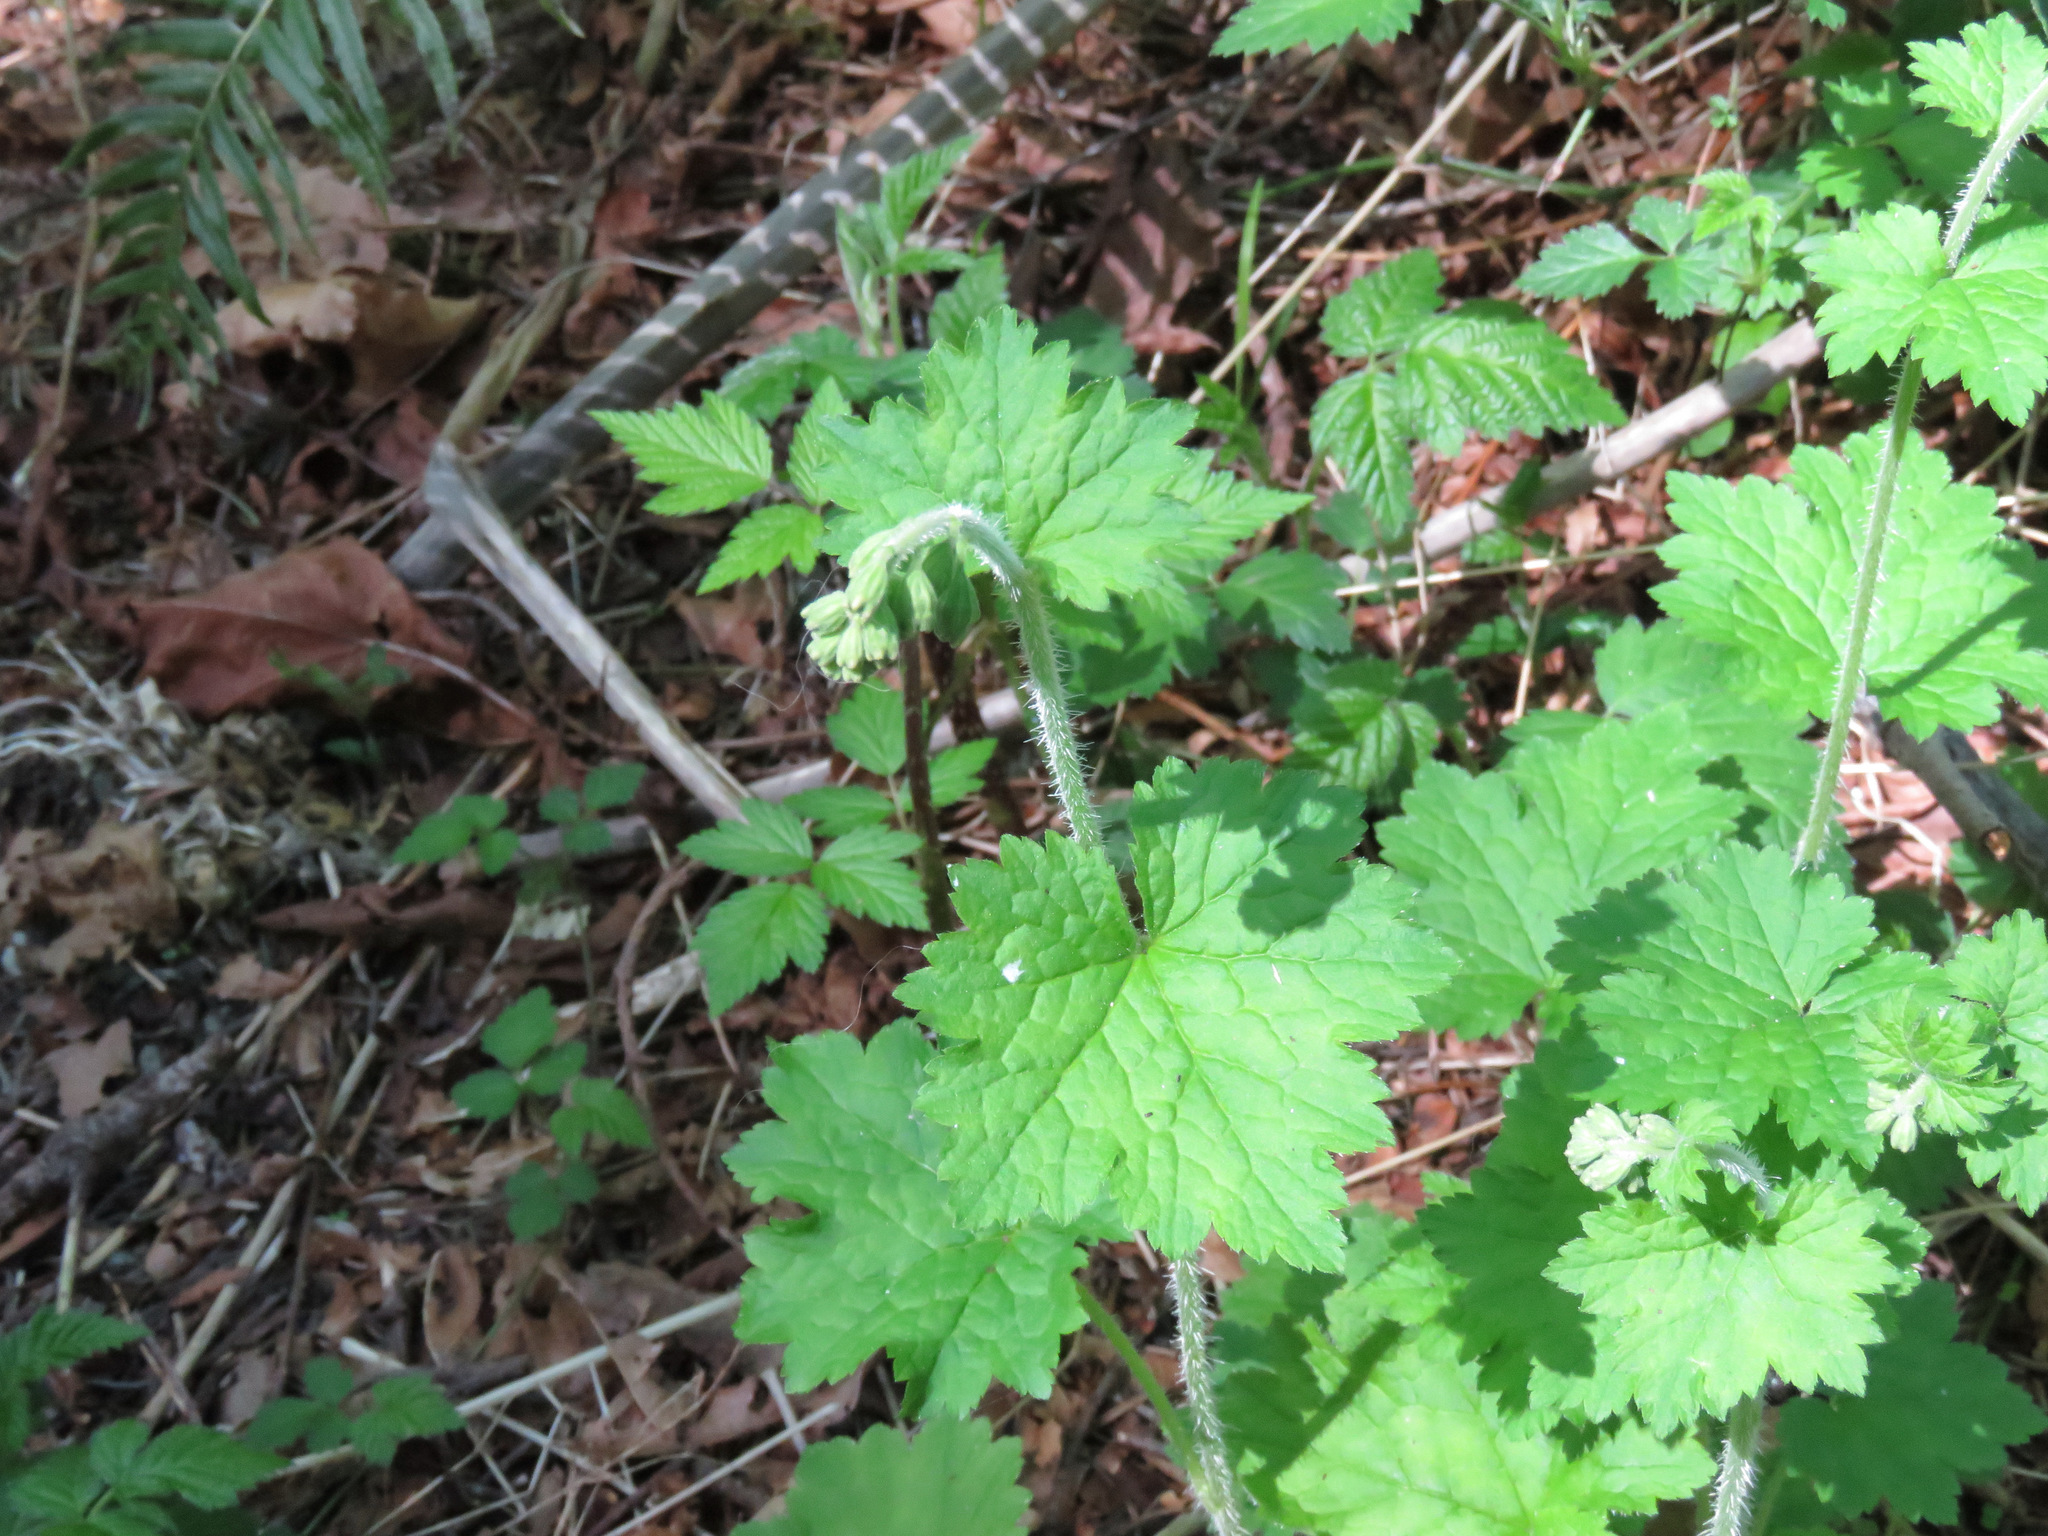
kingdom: Plantae
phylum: Tracheophyta
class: Magnoliopsida
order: Saxifragales
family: Saxifragaceae
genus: Tellima
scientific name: Tellima grandiflora
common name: Fringecups
